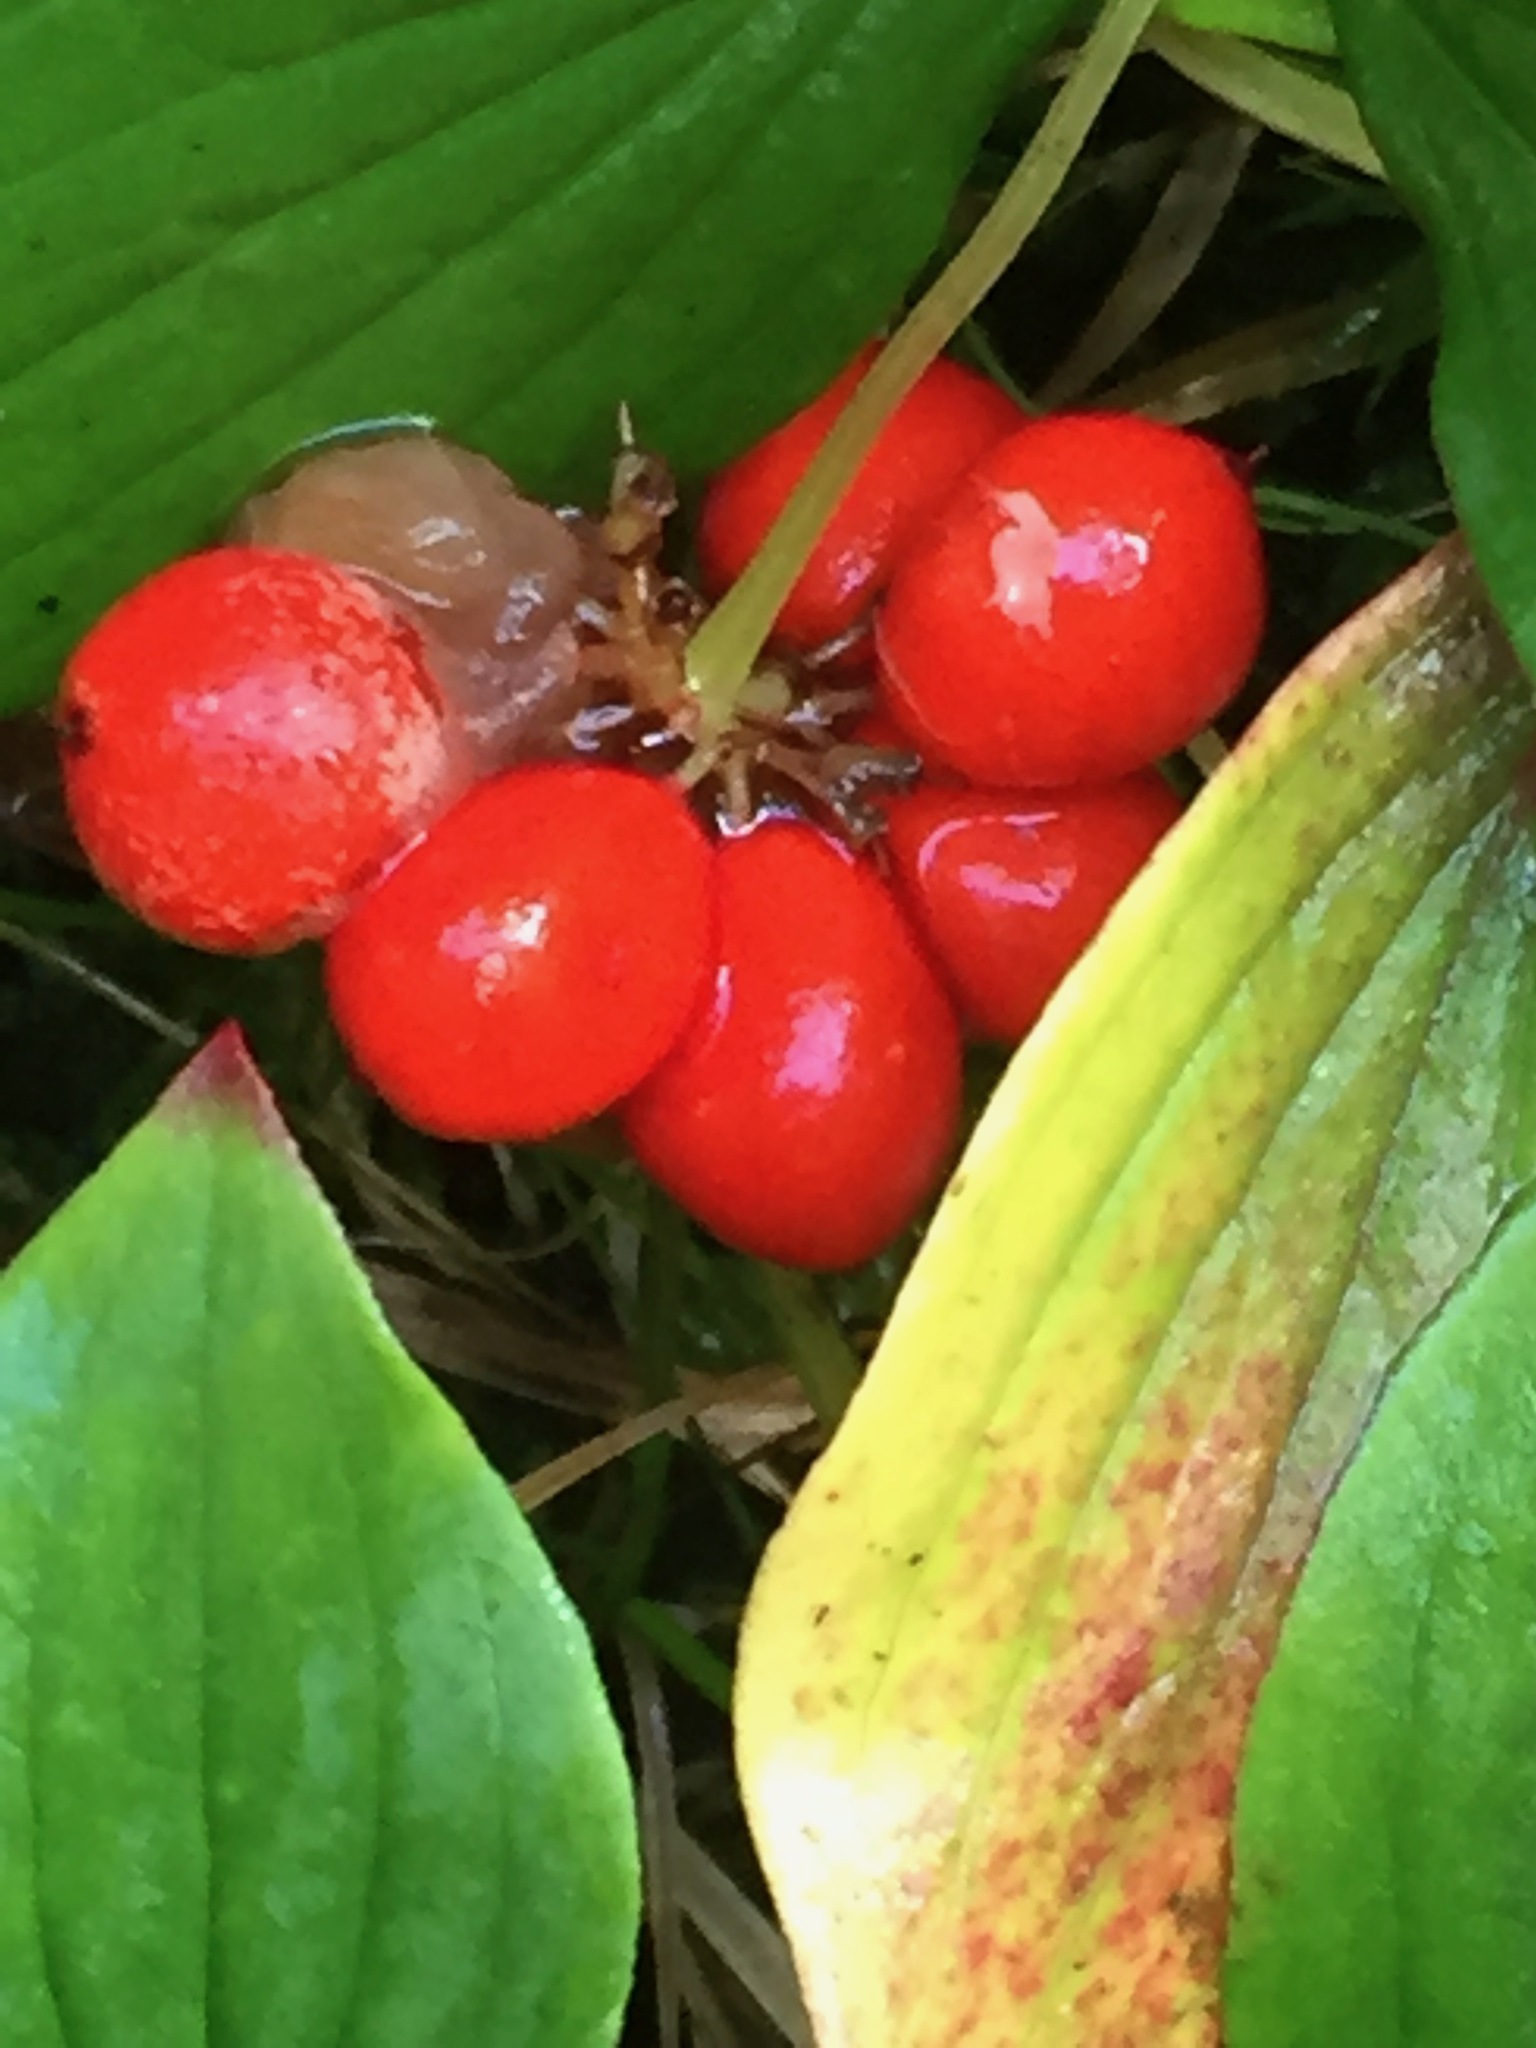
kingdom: Plantae
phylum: Tracheophyta
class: Magnoliopsida
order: Cornales
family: Cornaceae
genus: Cornus
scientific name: Cornus canadensis
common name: Creeping dogwood
